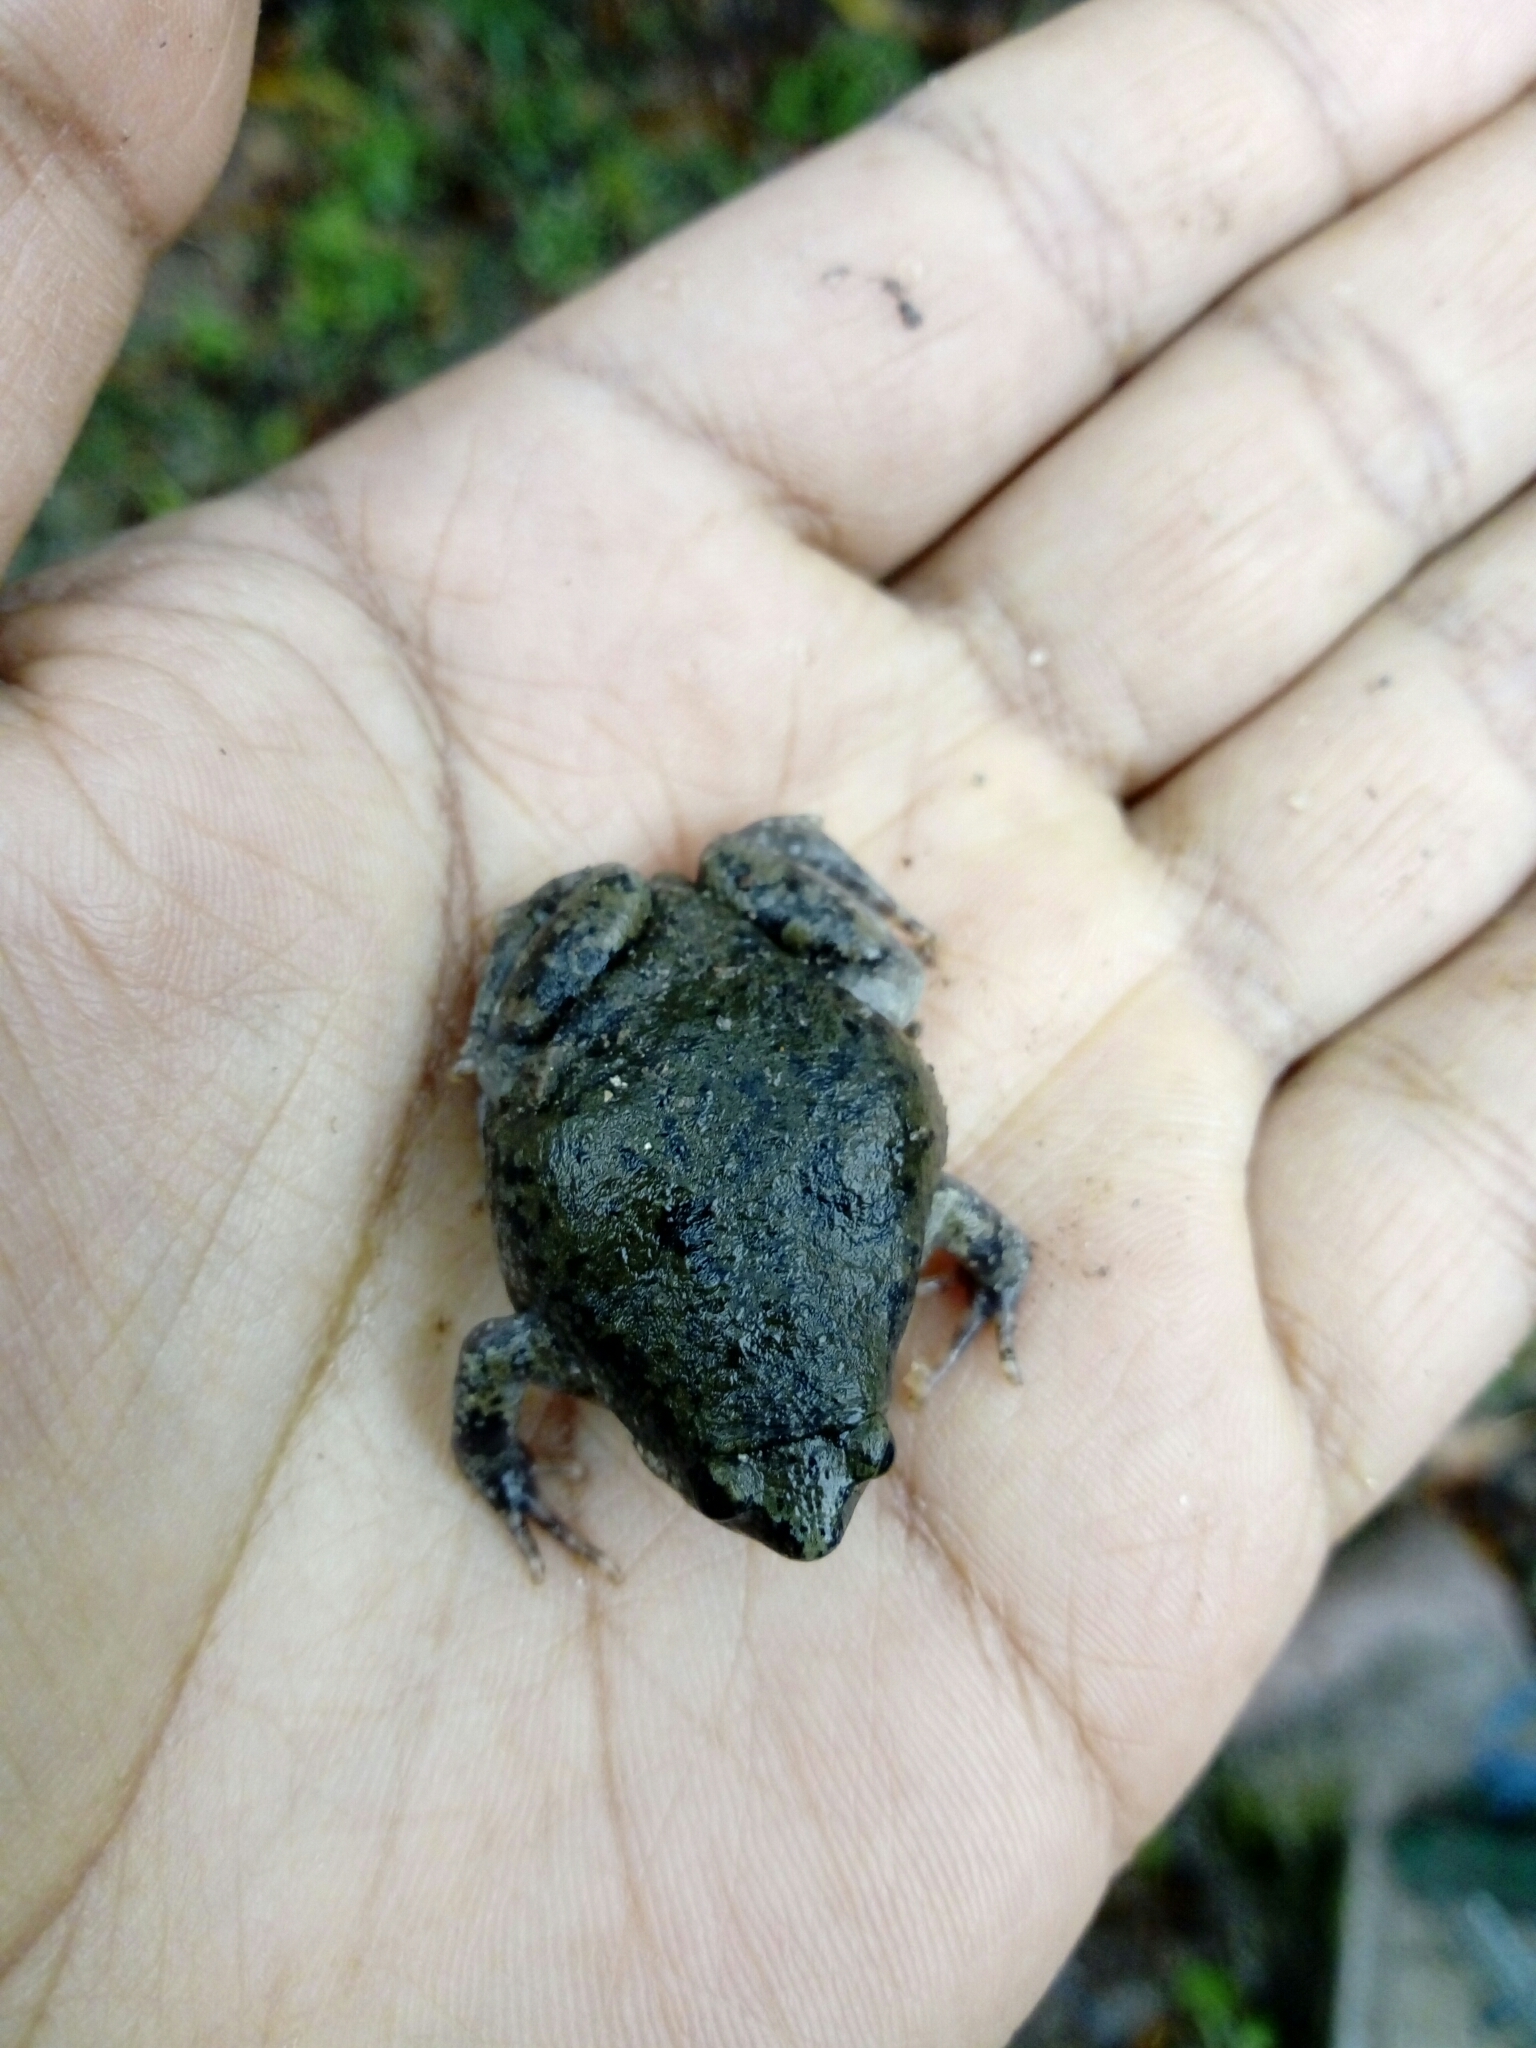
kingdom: Animalia
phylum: Chordata
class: Amphibia
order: Anura
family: Microhylidae
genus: Hypopachus
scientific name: Hypopachus variolosus
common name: Sheep frog
